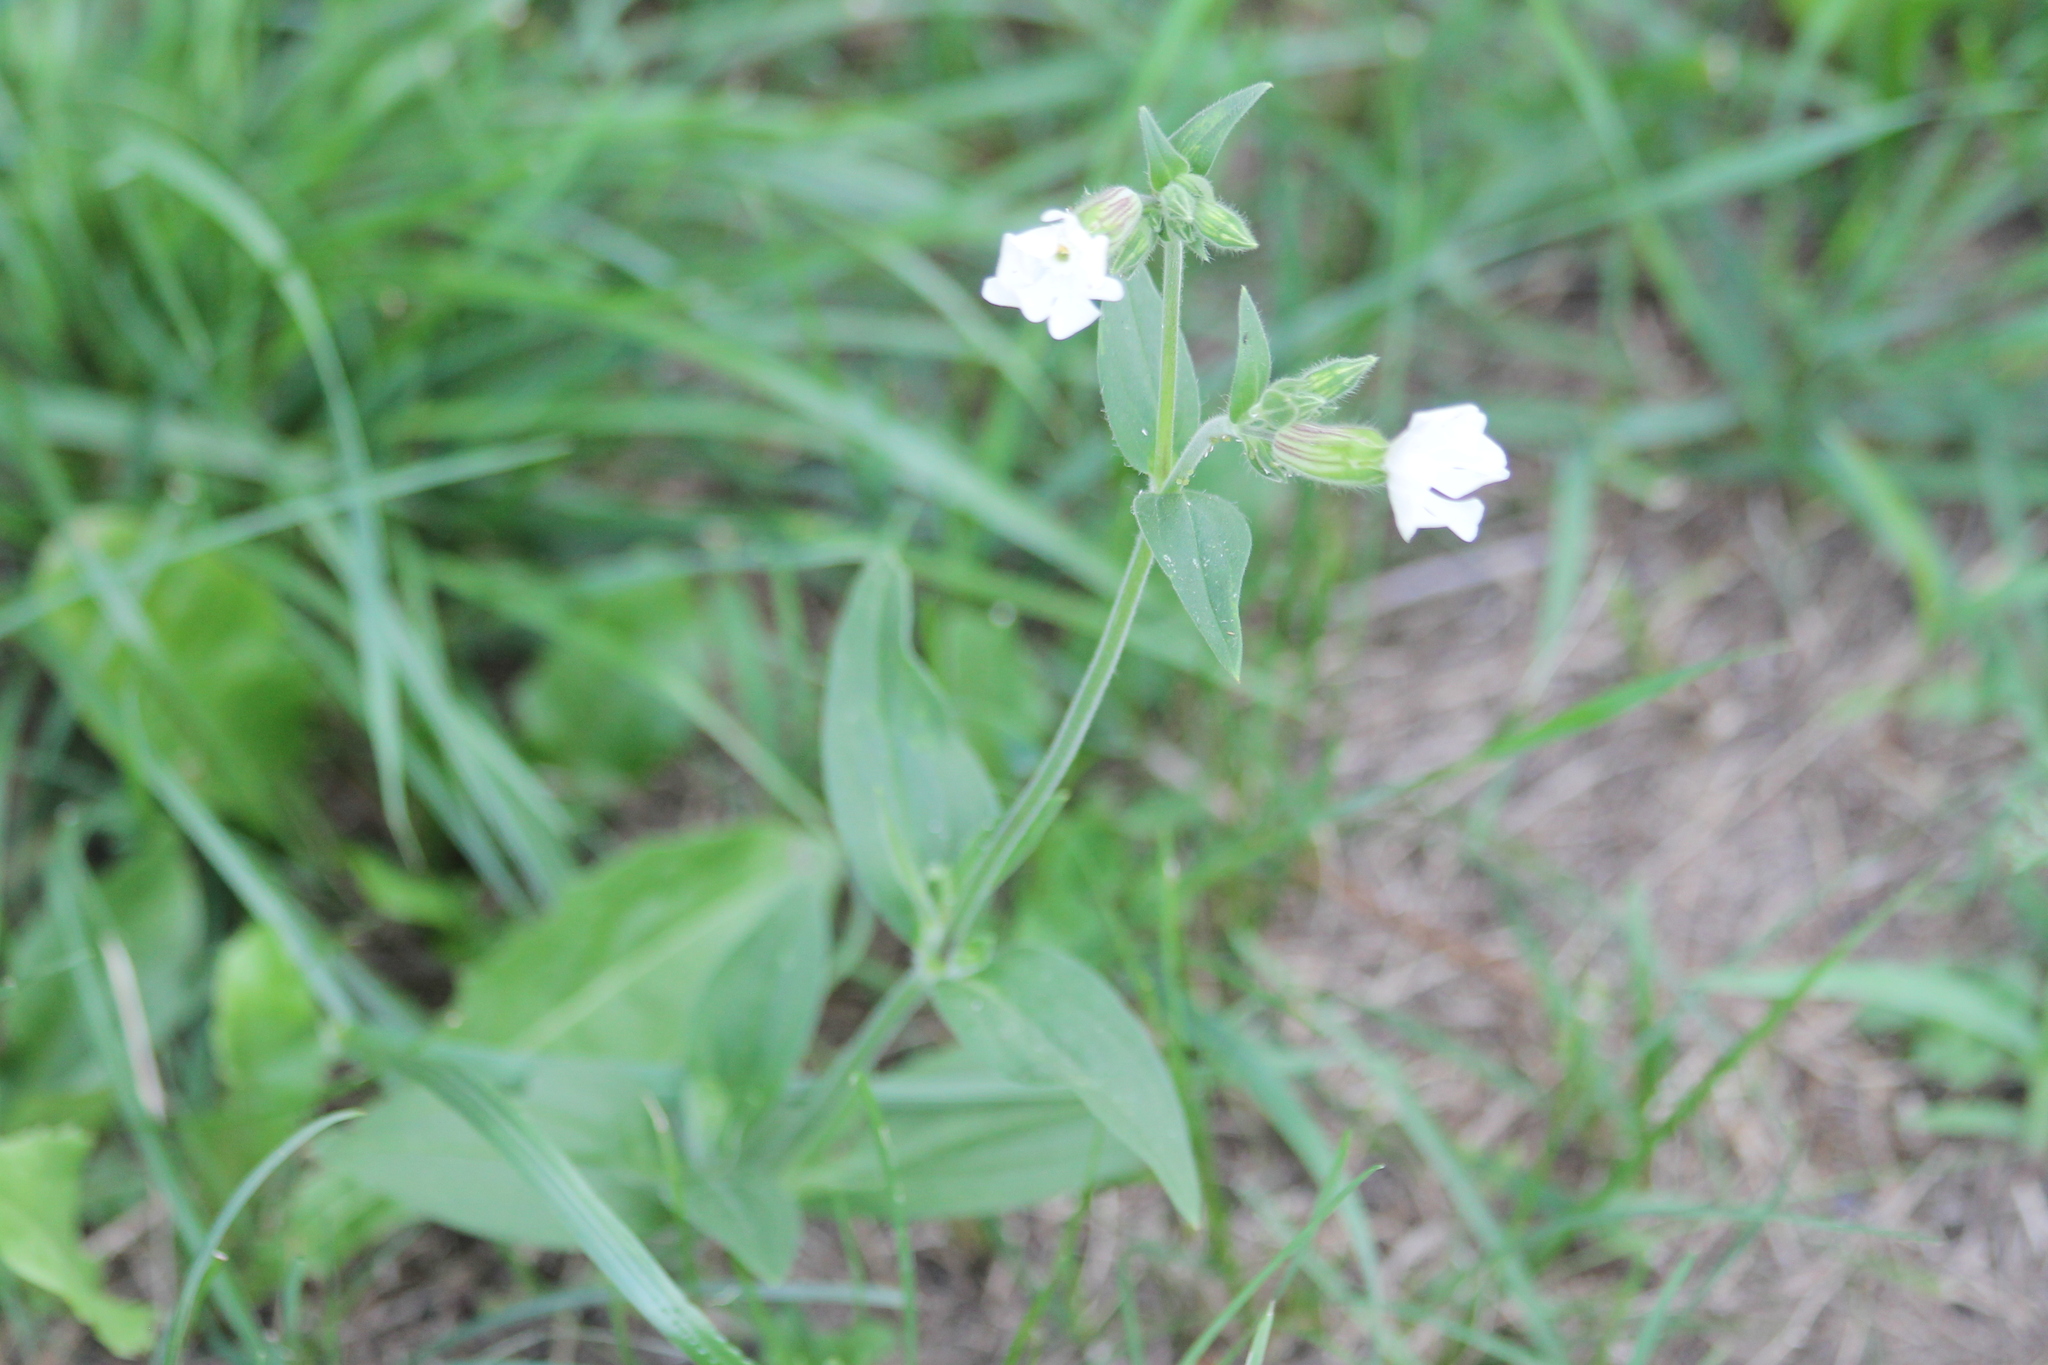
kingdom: Plantae
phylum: Tracheophyta
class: Magnoliopsida
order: Caryophyllales
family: Caryophyllaceae
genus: Silene
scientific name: Silene latifolia
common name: White campion
